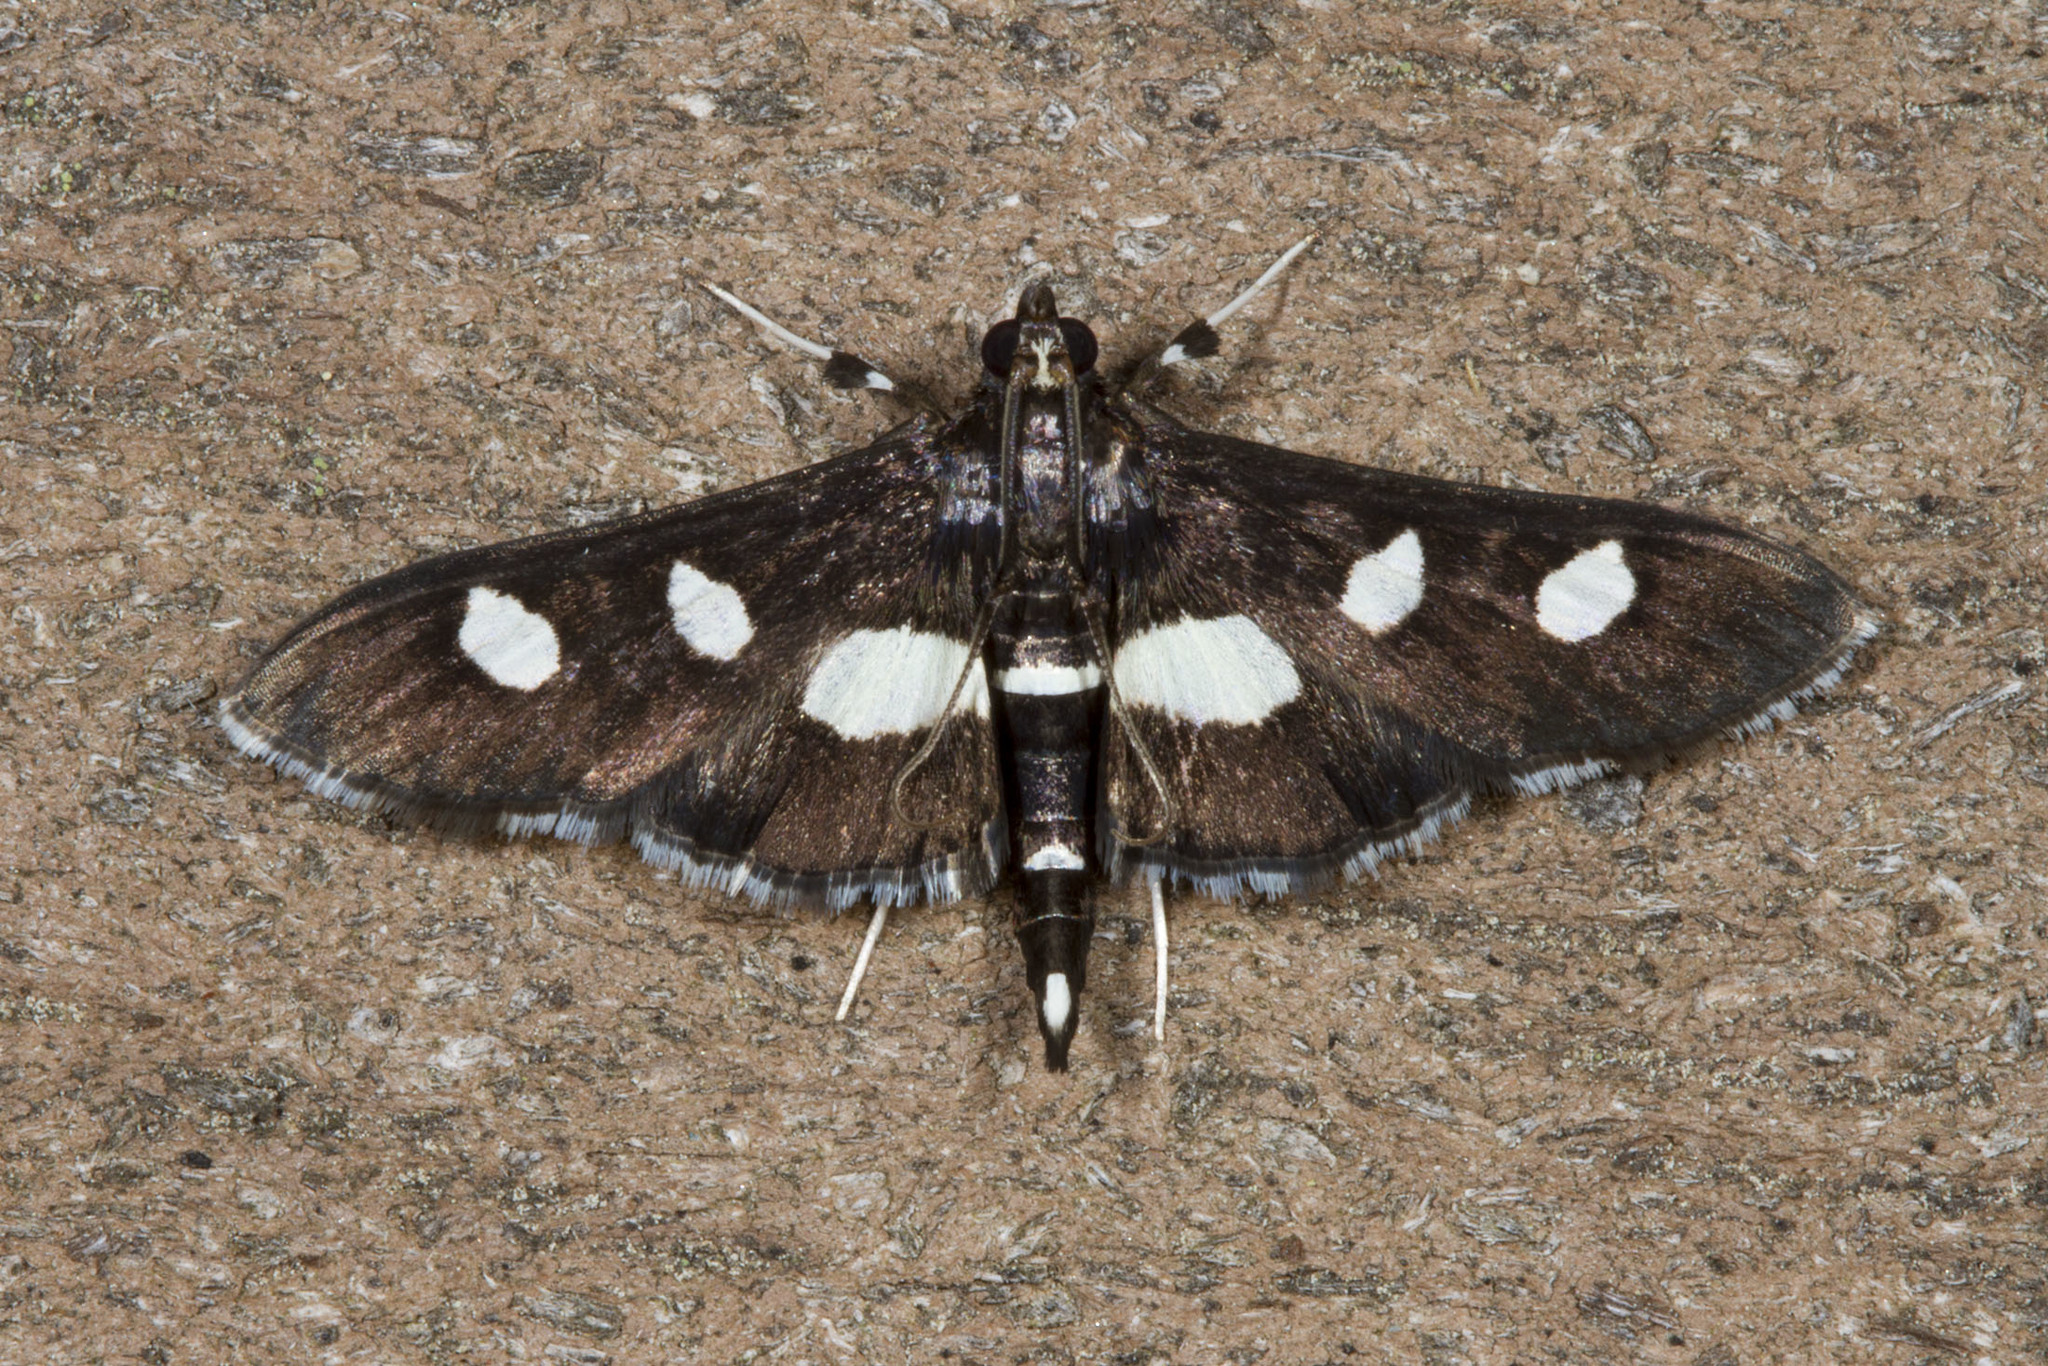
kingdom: Animalia
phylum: Arthropoda
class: Insecta
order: Lepidoptera
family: Crambidae
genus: Desmia
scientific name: Desmia
